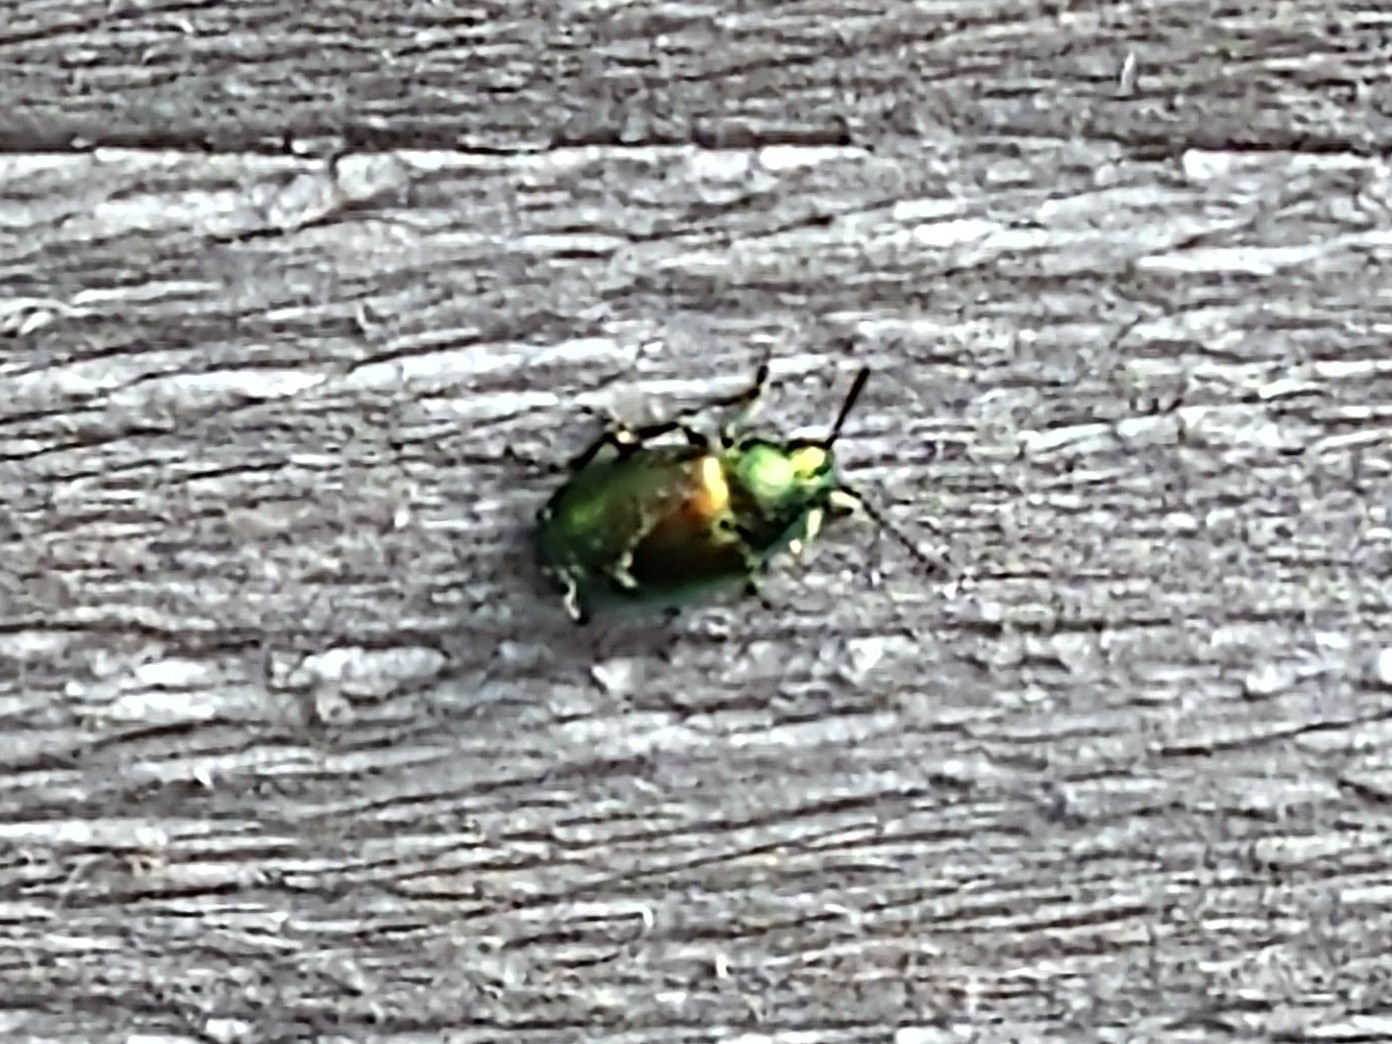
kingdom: Animalia
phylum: Arthropoda
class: Insecta
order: Coleoptera
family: Chrysomelidae
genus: Gastrophysa
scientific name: Gastrophysa viridula
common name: Green dock beetle
